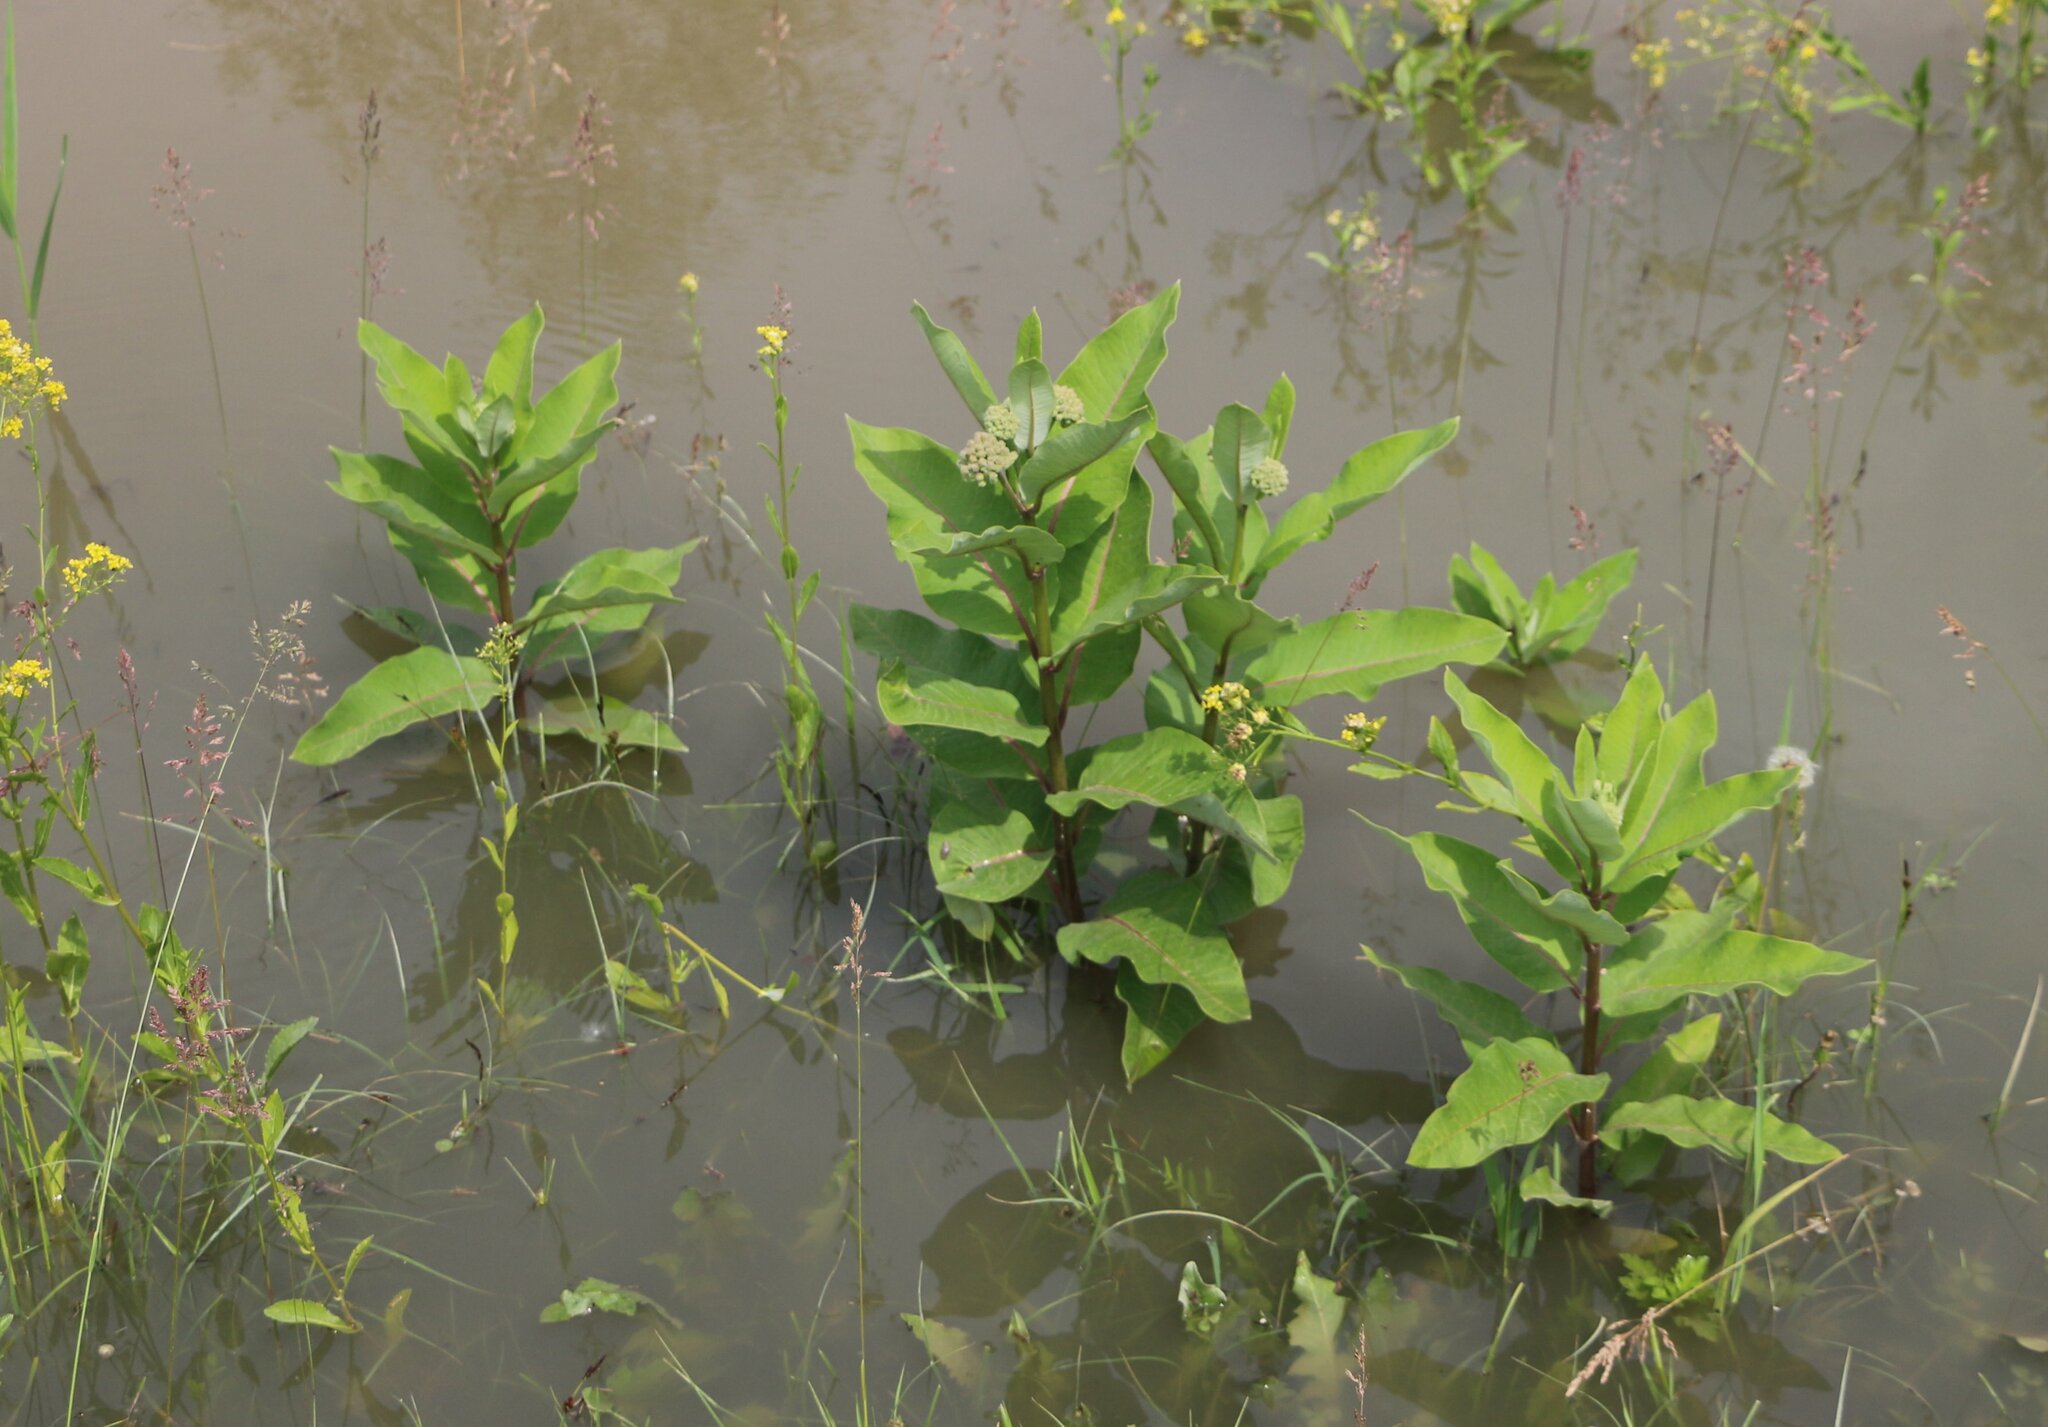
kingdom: Plantae
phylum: Tracheophyta
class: Magnoliopsida
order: Gentianales
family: Apocynaceae
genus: Asclepias
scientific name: Asclepias syriaca
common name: Common milkweed
